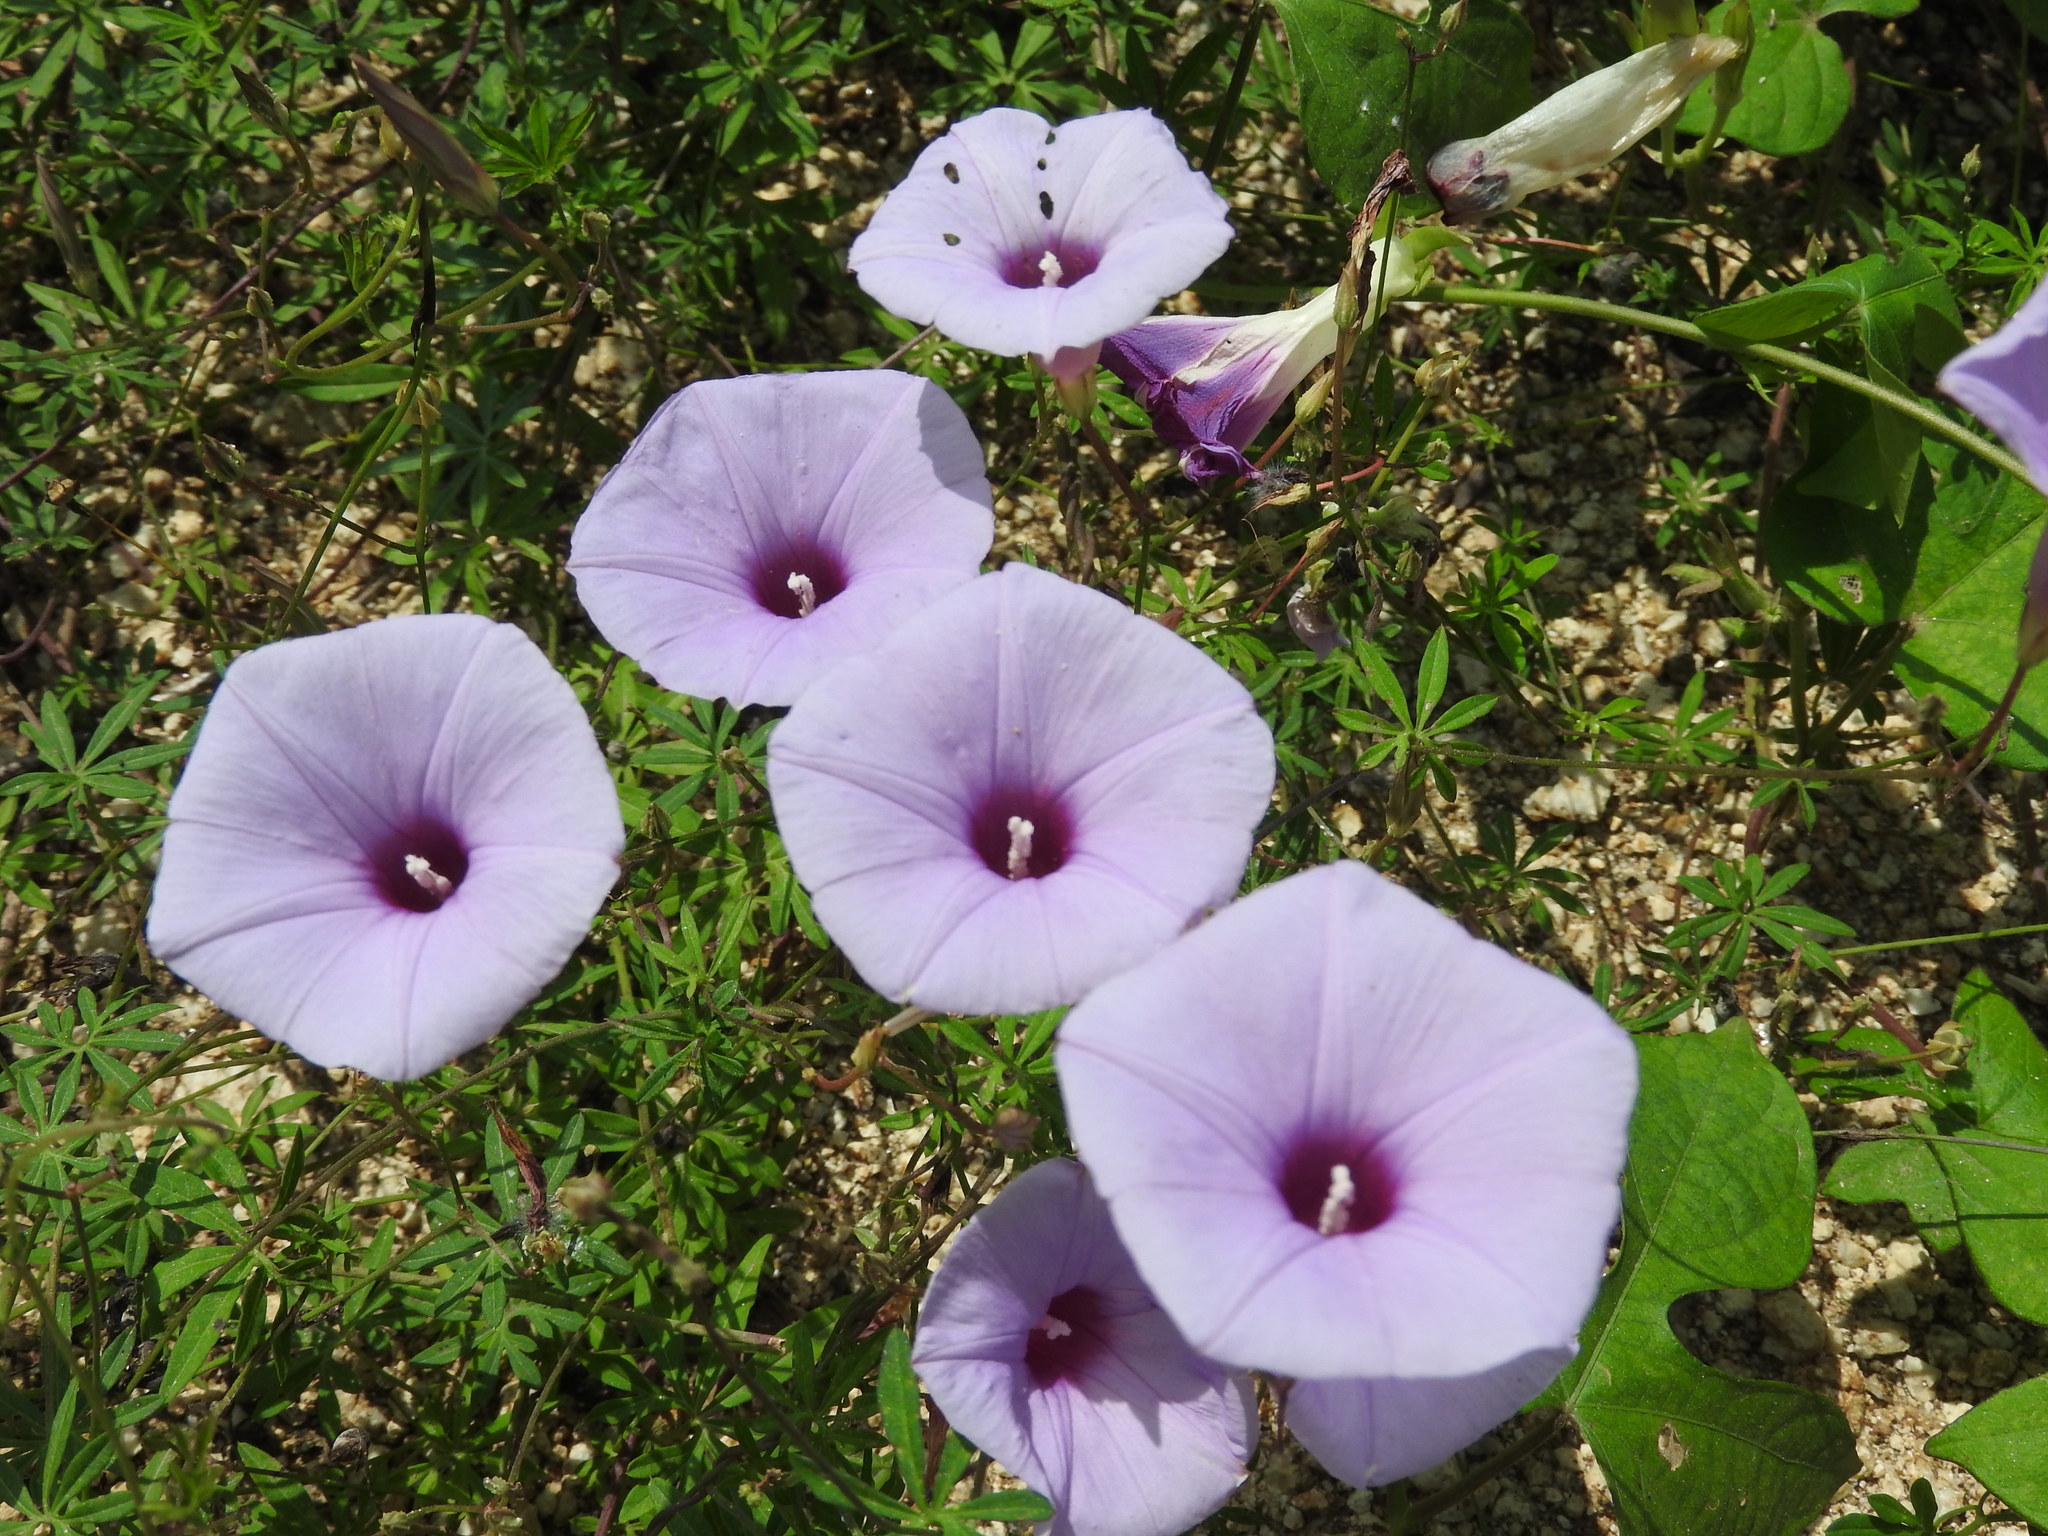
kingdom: Plantae
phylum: Tracheophyta
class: Magnoliopsida
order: Solanales
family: Convolvulaceae
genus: Ipomoea
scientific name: Ipomoea ternifolia
